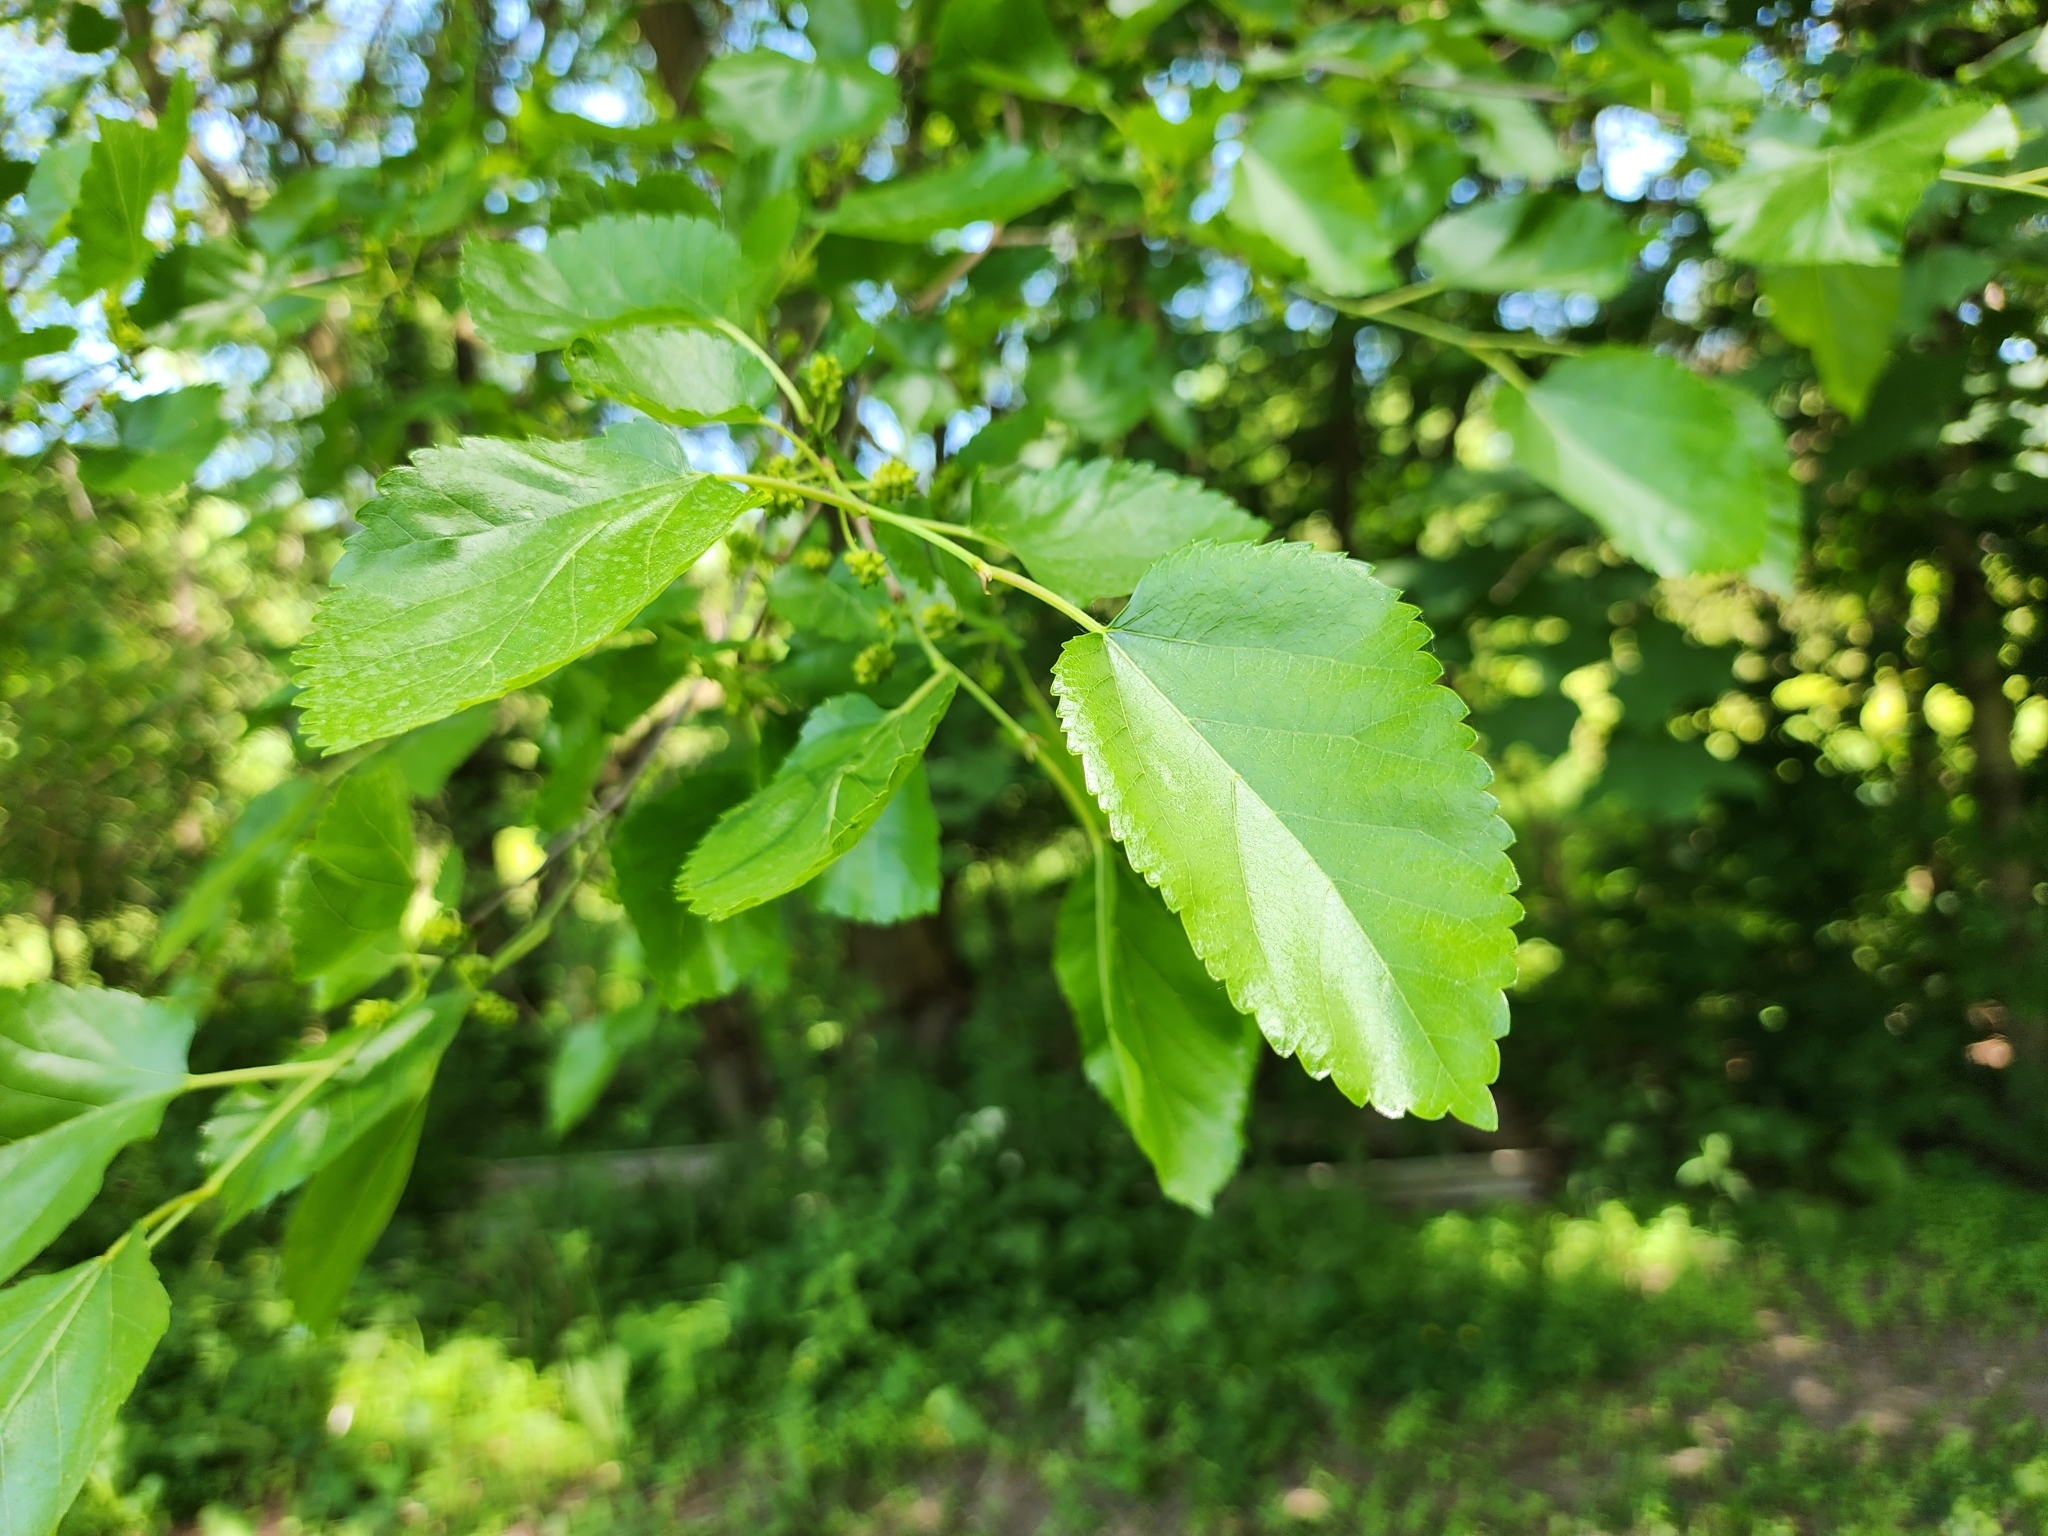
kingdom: Plantae
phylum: Tracheophyta
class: Magnoliopsida
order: Rosales
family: Moraceae
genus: Morus
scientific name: Morus alba
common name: White mulberry
